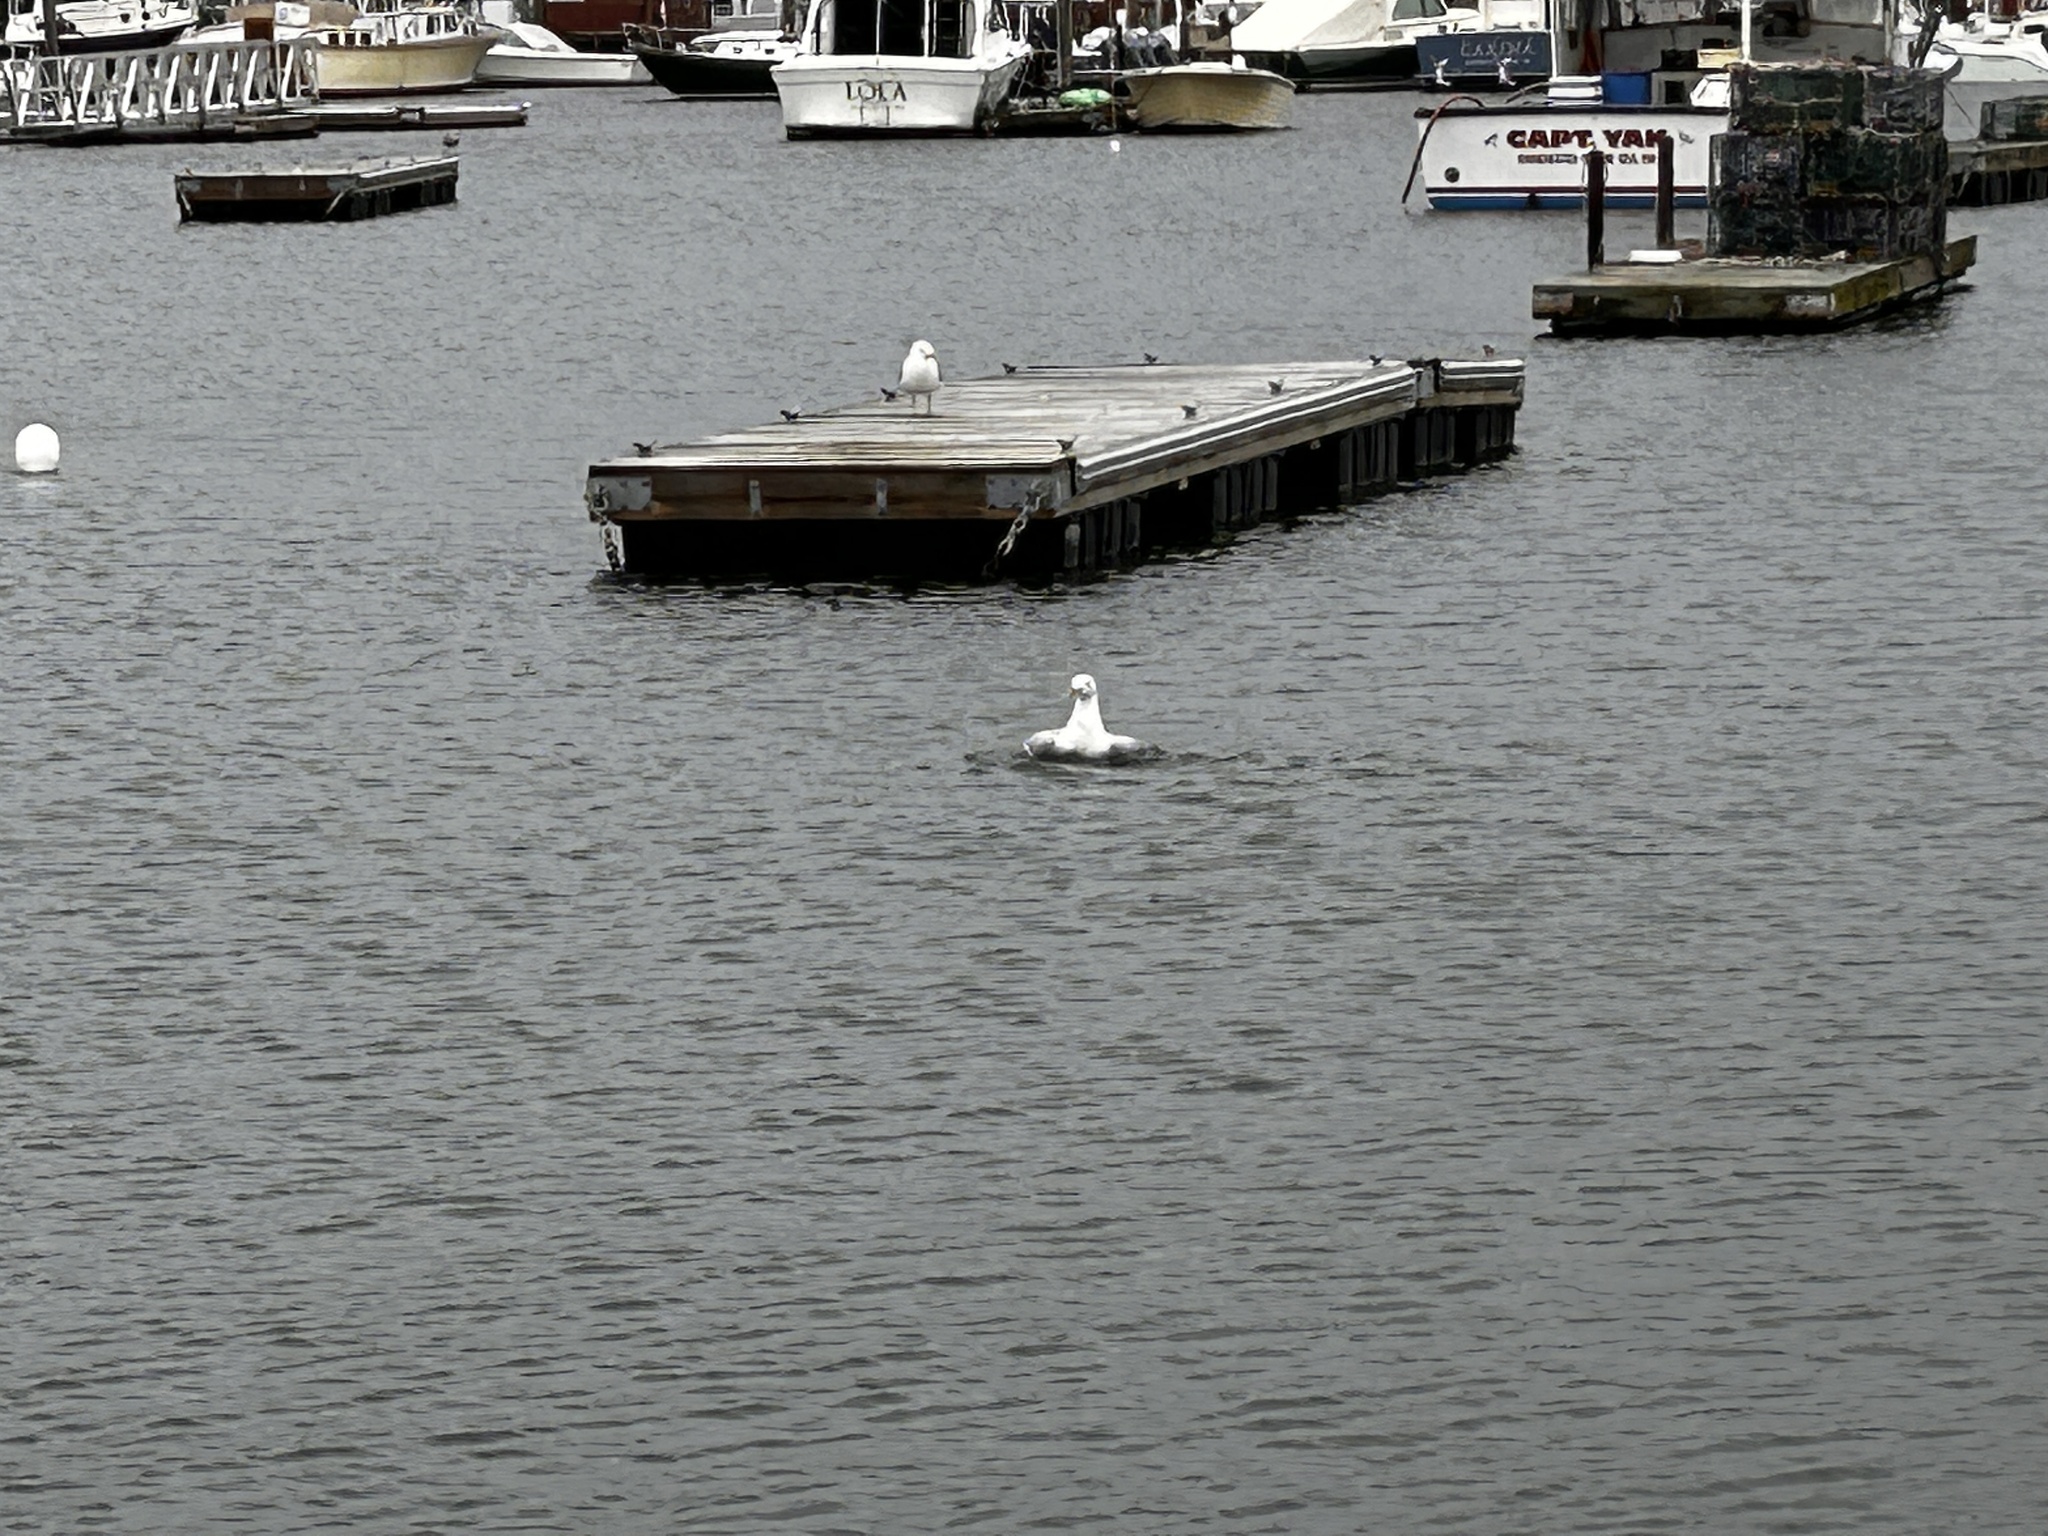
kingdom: Animalia
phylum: Chordata
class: Aves
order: Charadriiformes
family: Laridae
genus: Larus
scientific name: Larus marinus
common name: Great black-backed gull
